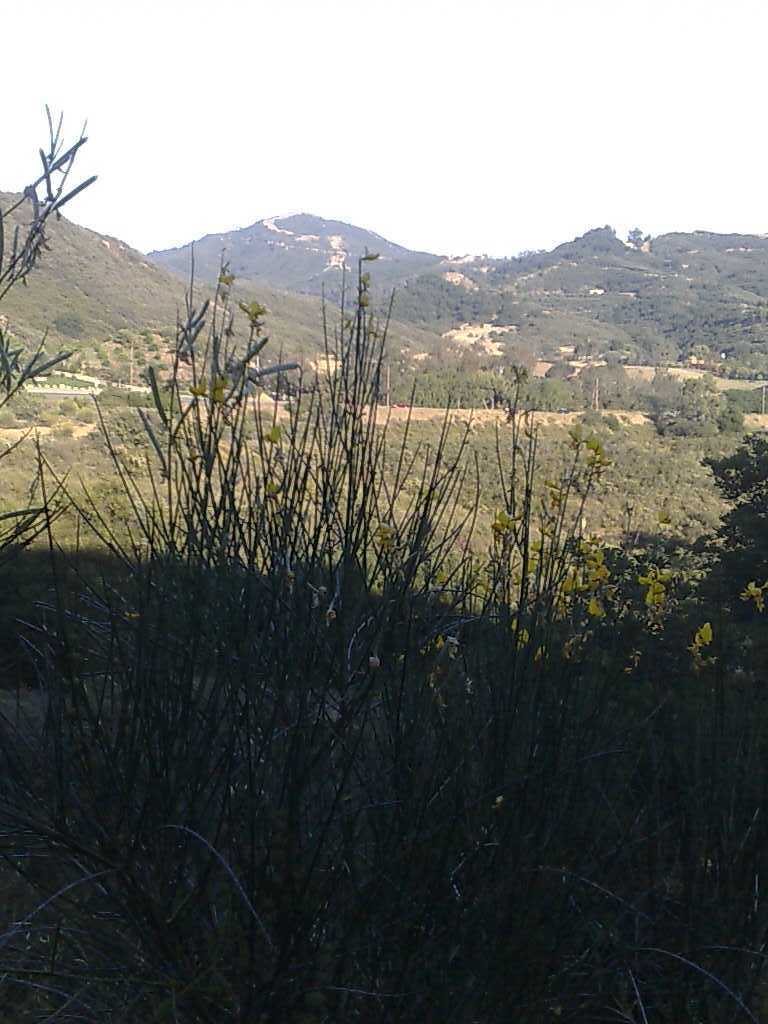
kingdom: Plantae
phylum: Tracheophyta
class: Magnoliopsida
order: Fabales
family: Fabaceae
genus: Spartium
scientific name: Spartium junceum
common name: Spanish broom
